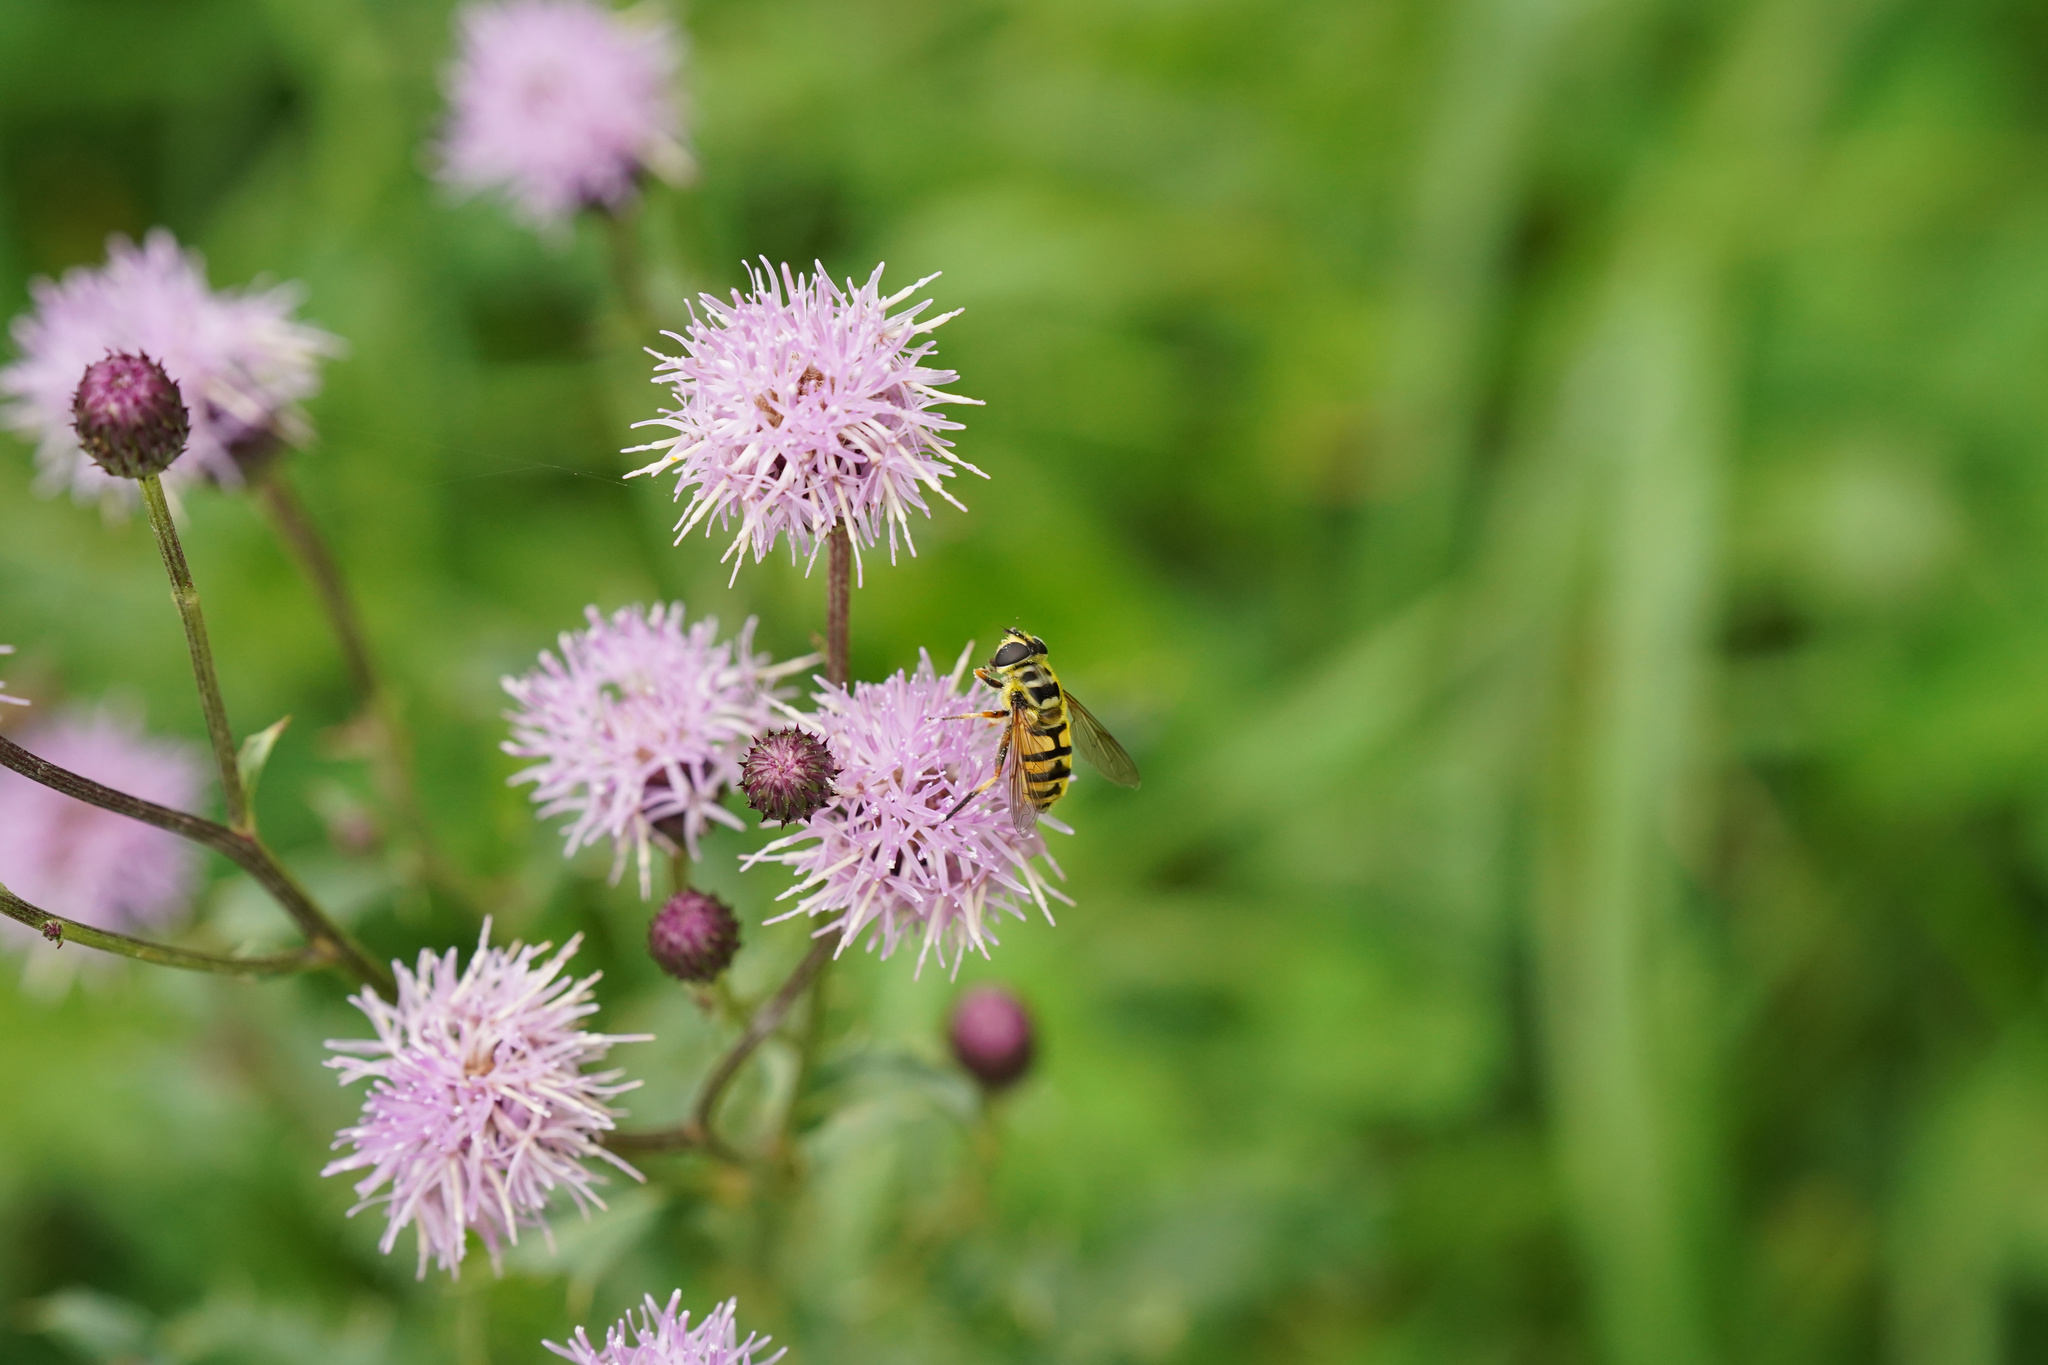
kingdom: Animalia
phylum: Arthropoda
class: Insecta
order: Diptera
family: Syrphidae
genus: Myathropa
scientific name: Myathropa florea
